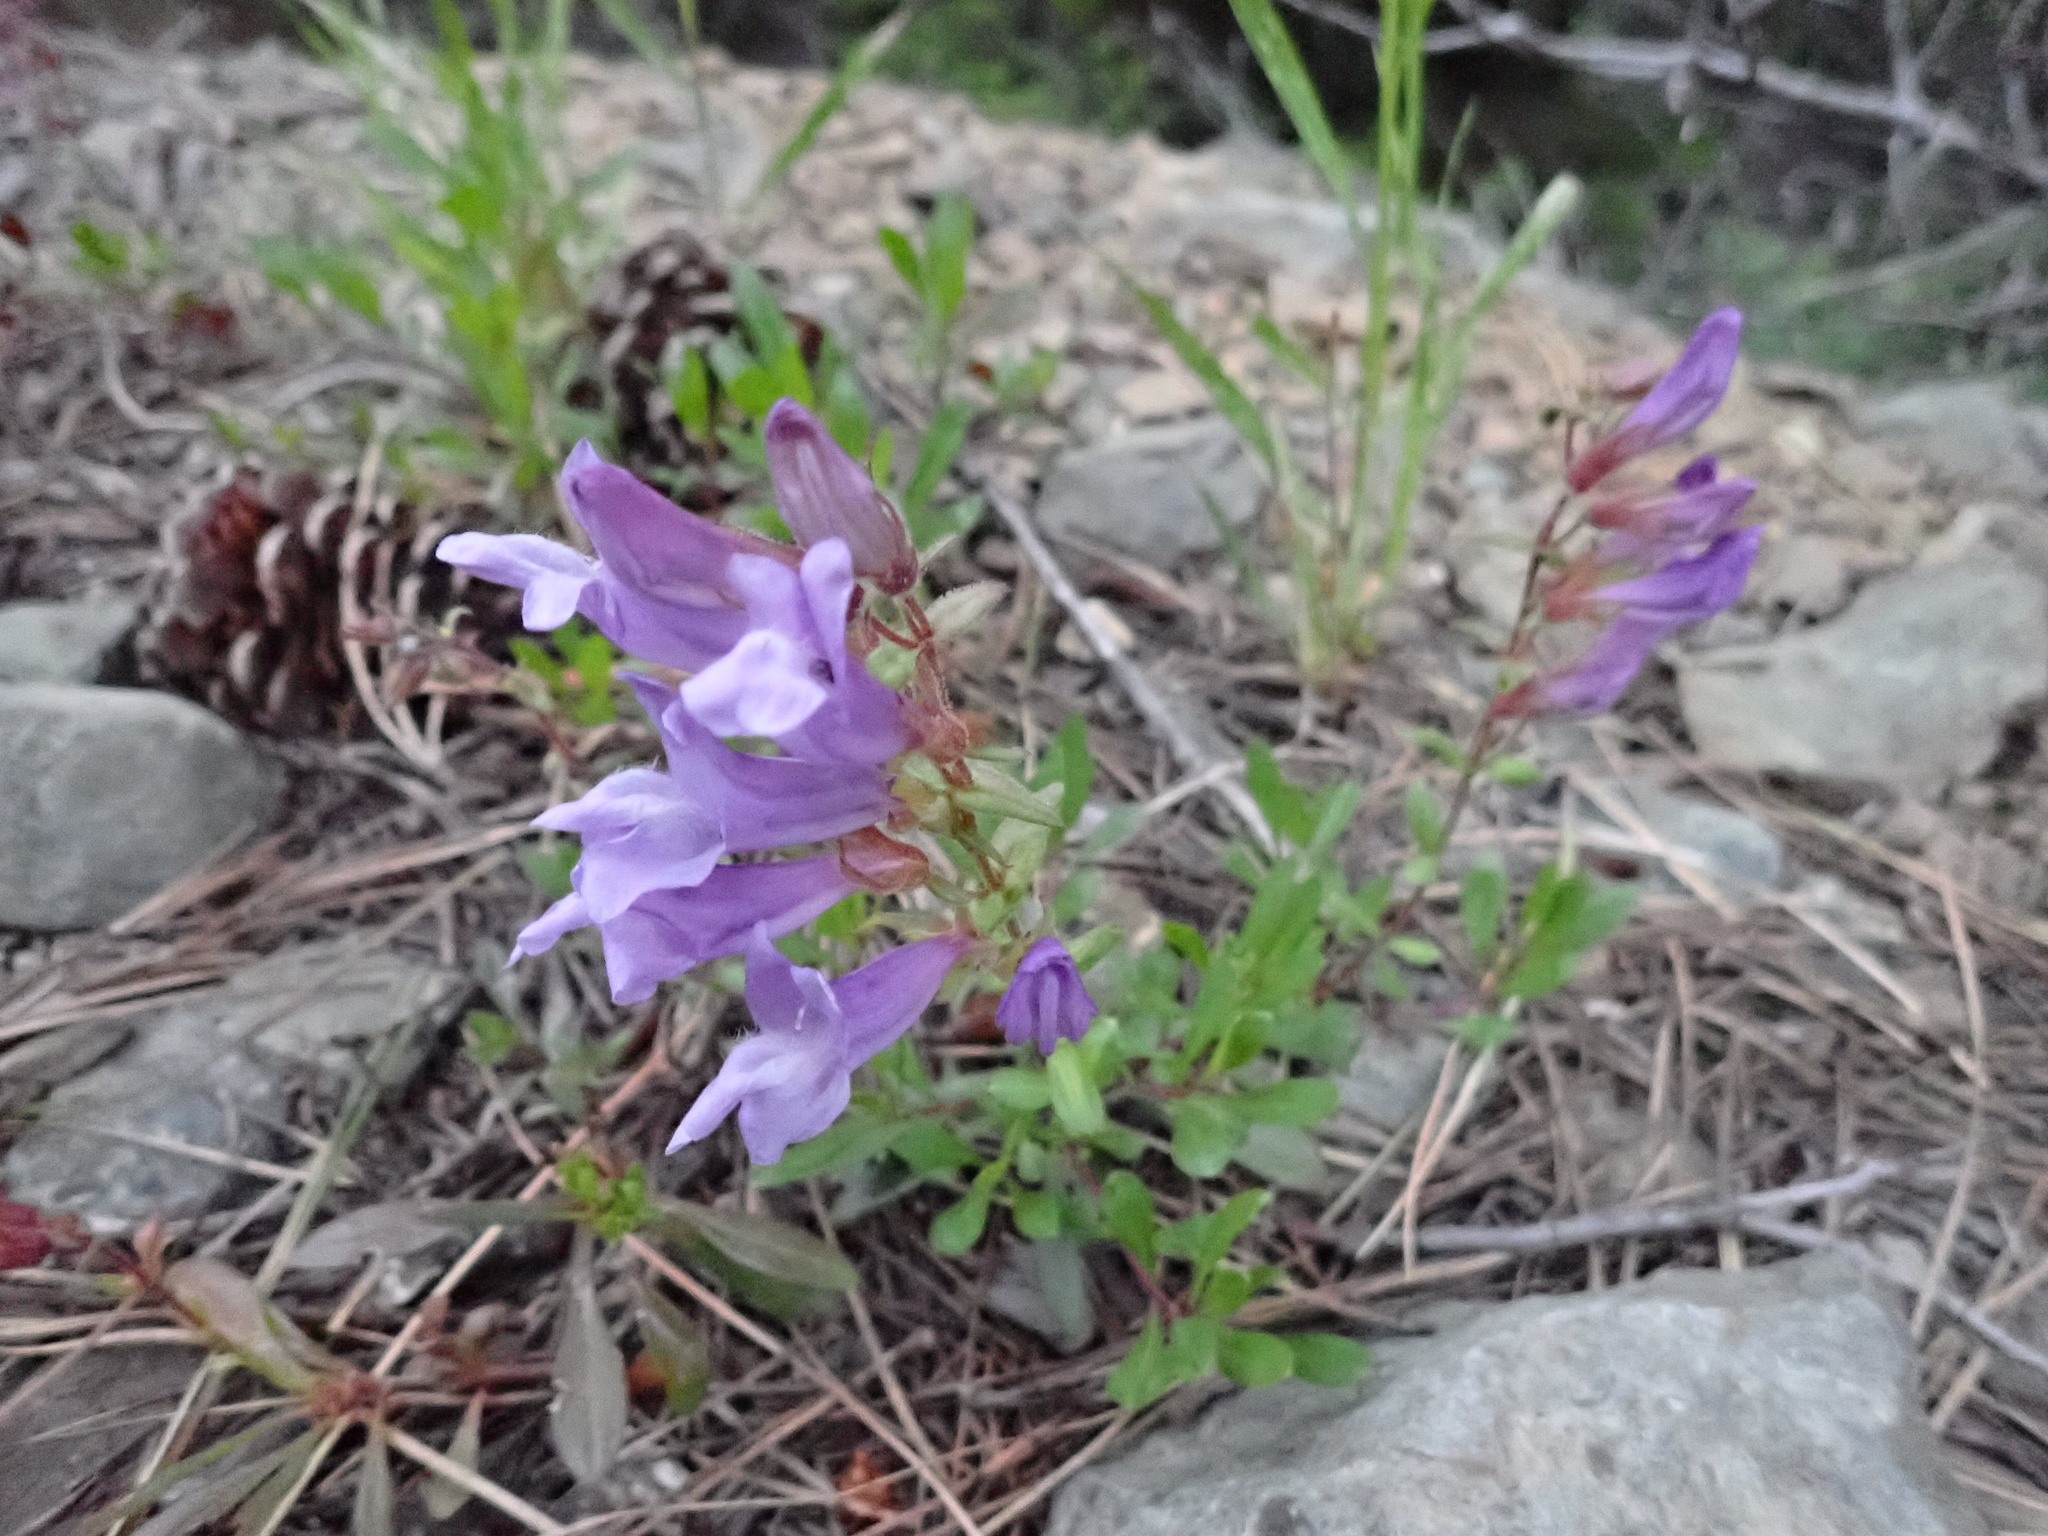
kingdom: Plantae
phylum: Tracheophyta
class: Magnoliopsida
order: Lamiales
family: Plantaginaceae
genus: Penstemon
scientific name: Penstemon fruticosus
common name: Bush penstemon
